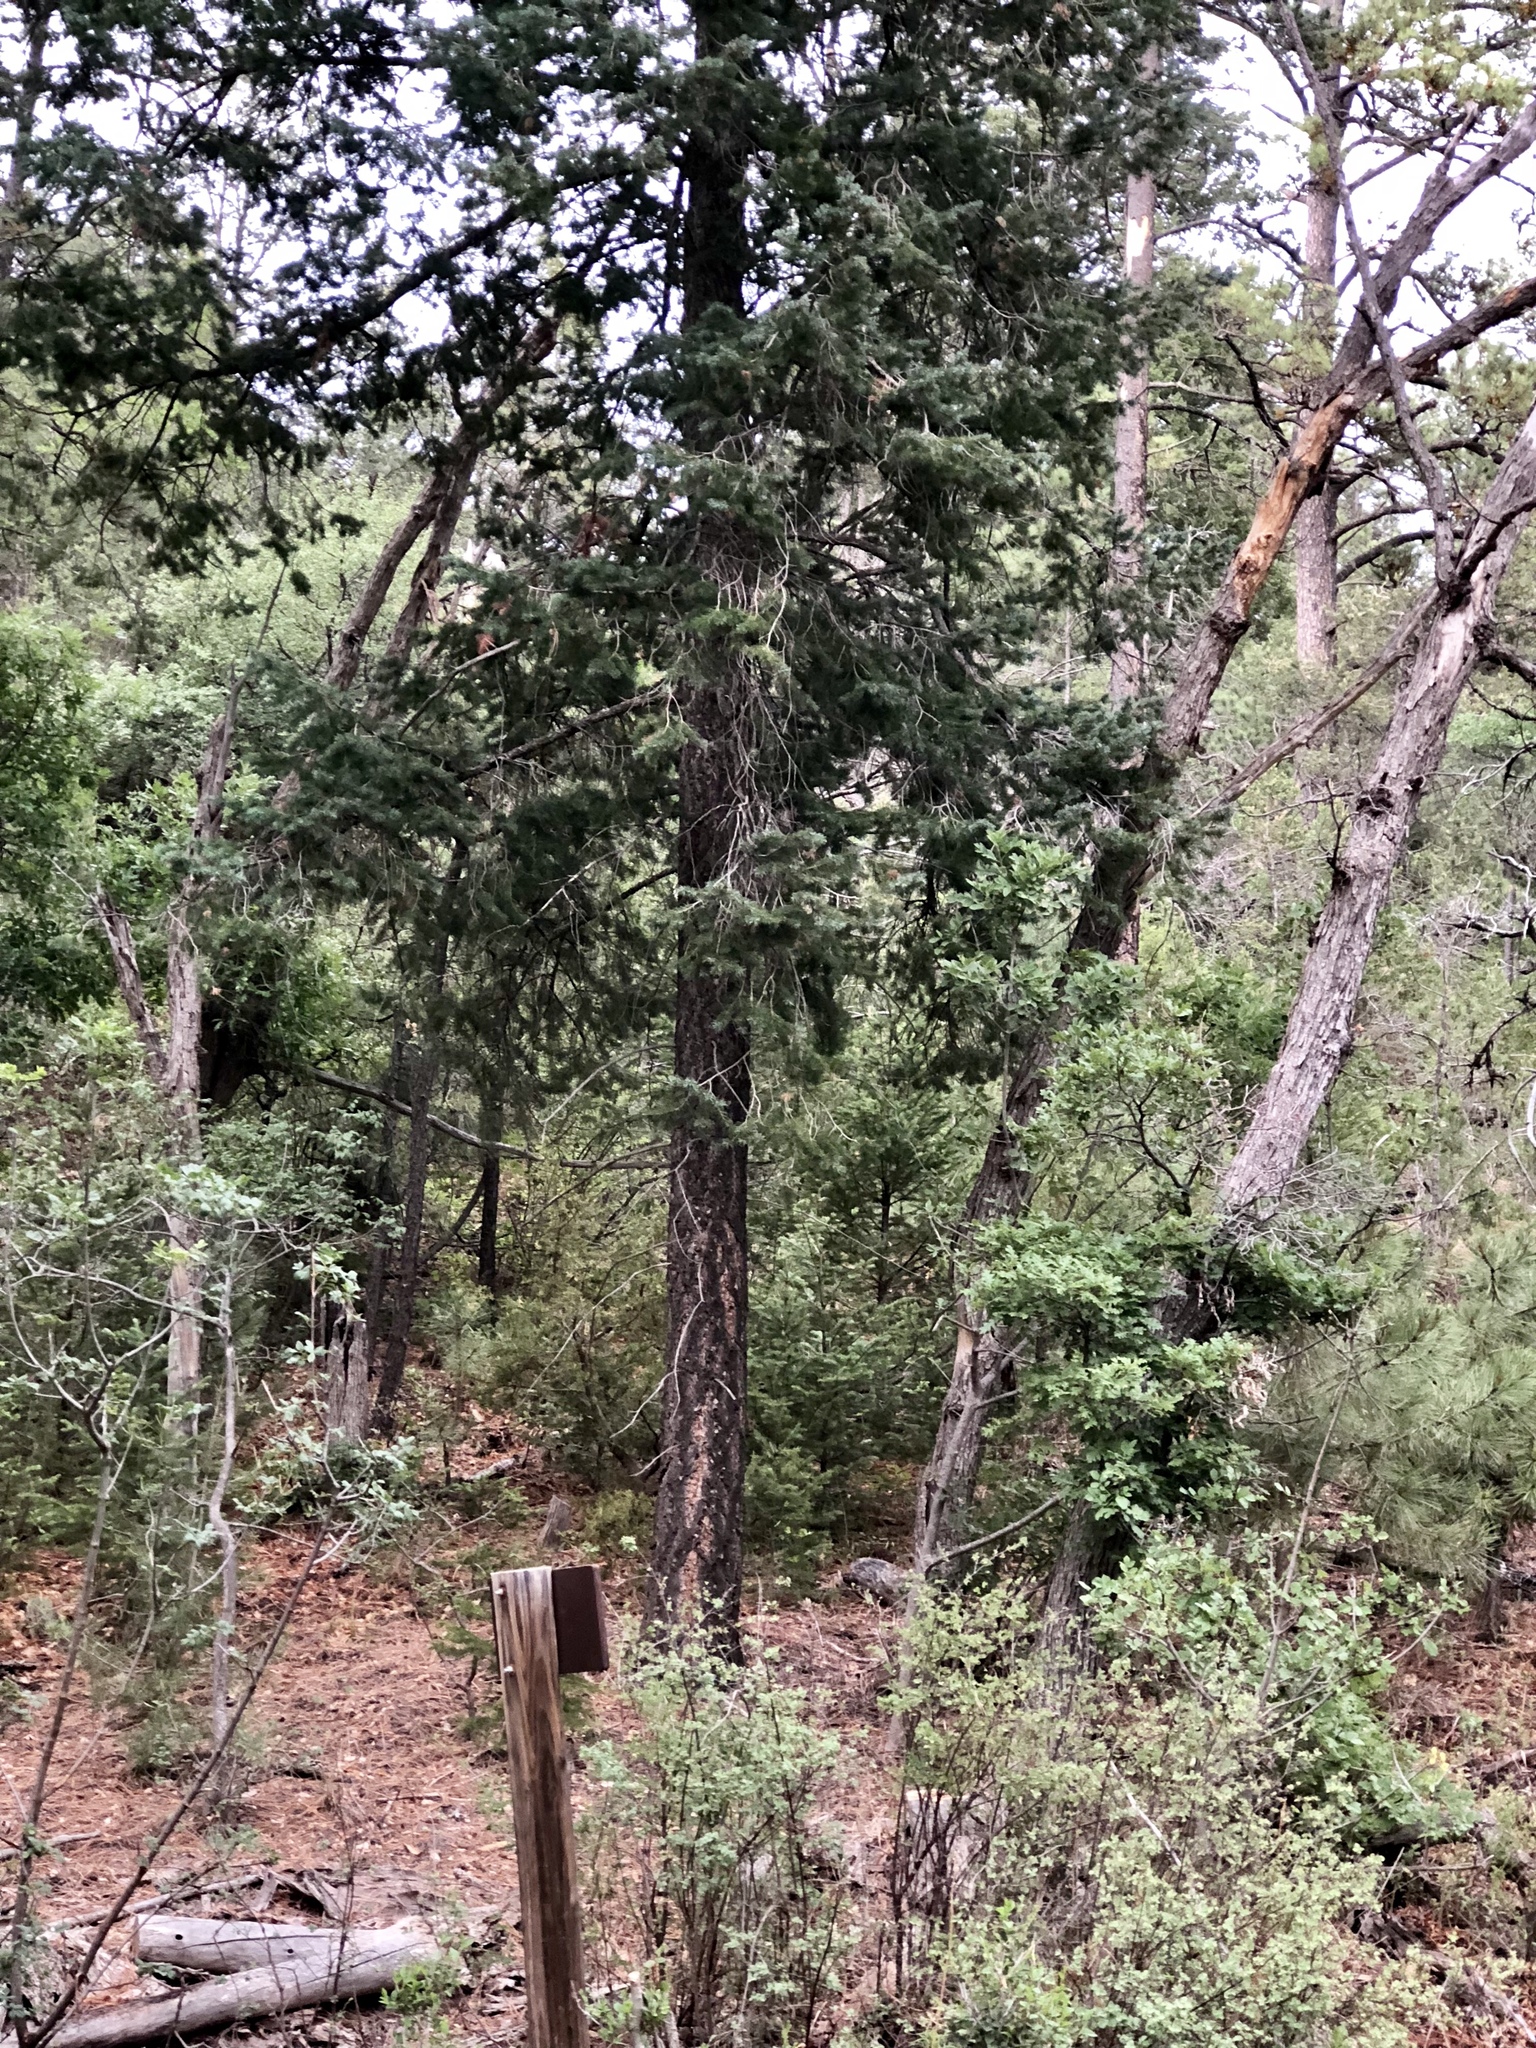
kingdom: Plantae
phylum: Tracheophyta
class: Pinopsida
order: Pinales
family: Pinaceae
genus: Pseudotsuga
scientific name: Pseudotsuga menziesii
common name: Douglas fir
